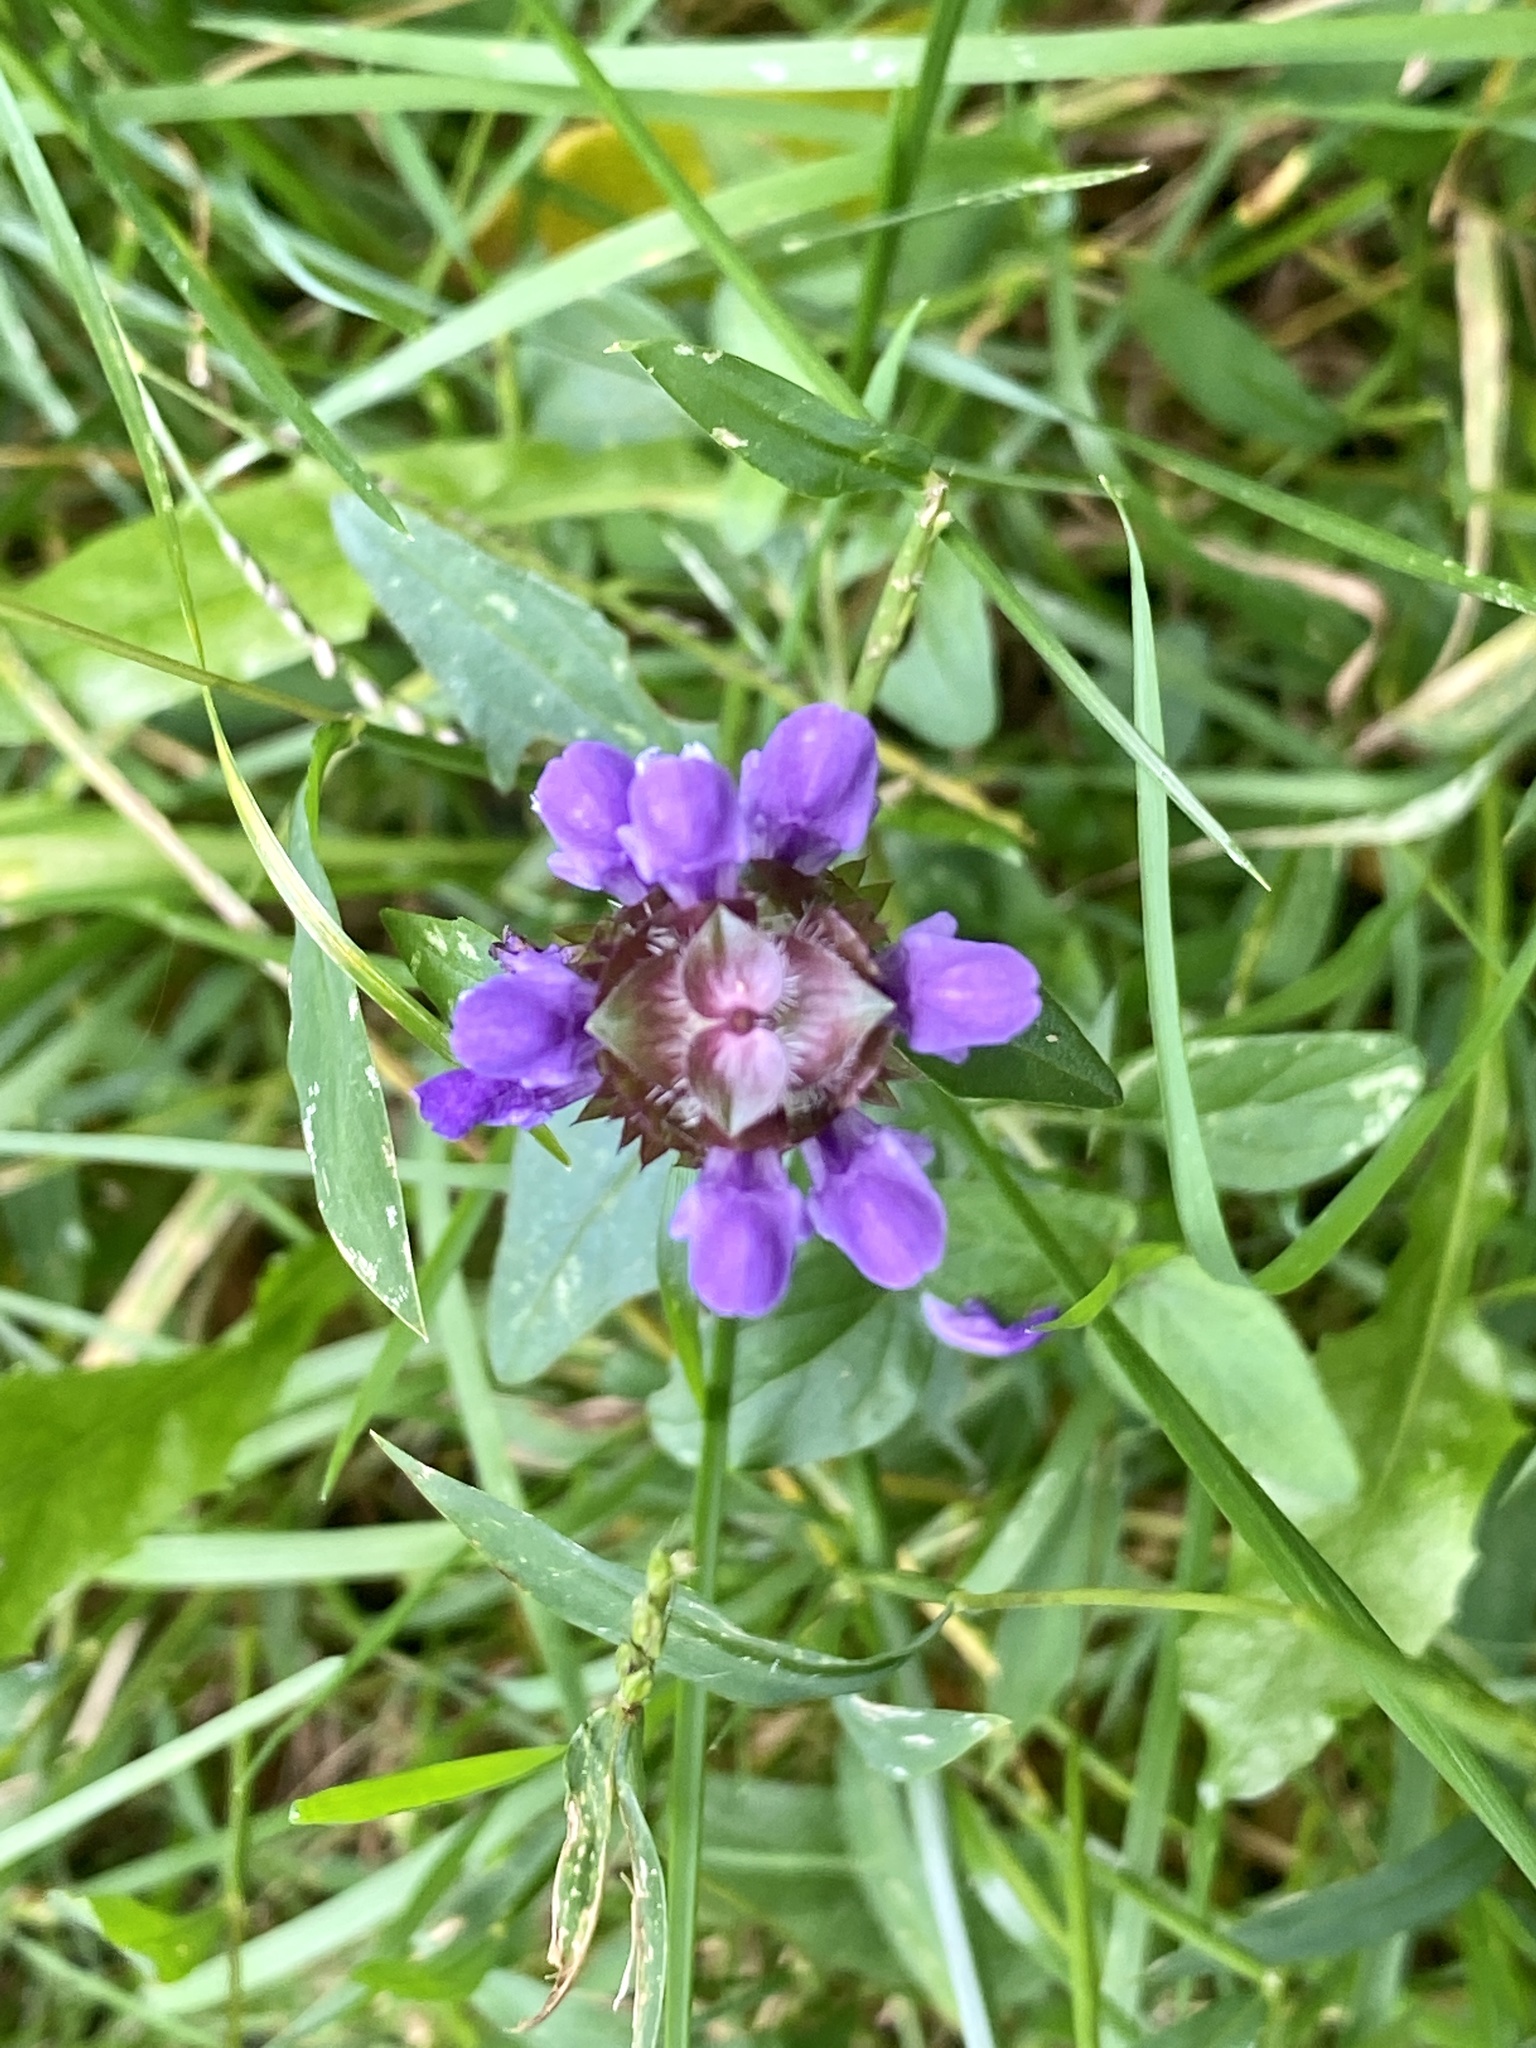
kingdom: Plantae
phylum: Tracheophyta
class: Magnoliopsida
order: Lamiales
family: Lamiaceae
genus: Prunella
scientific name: Prunella vulgaris
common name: Heal-all
